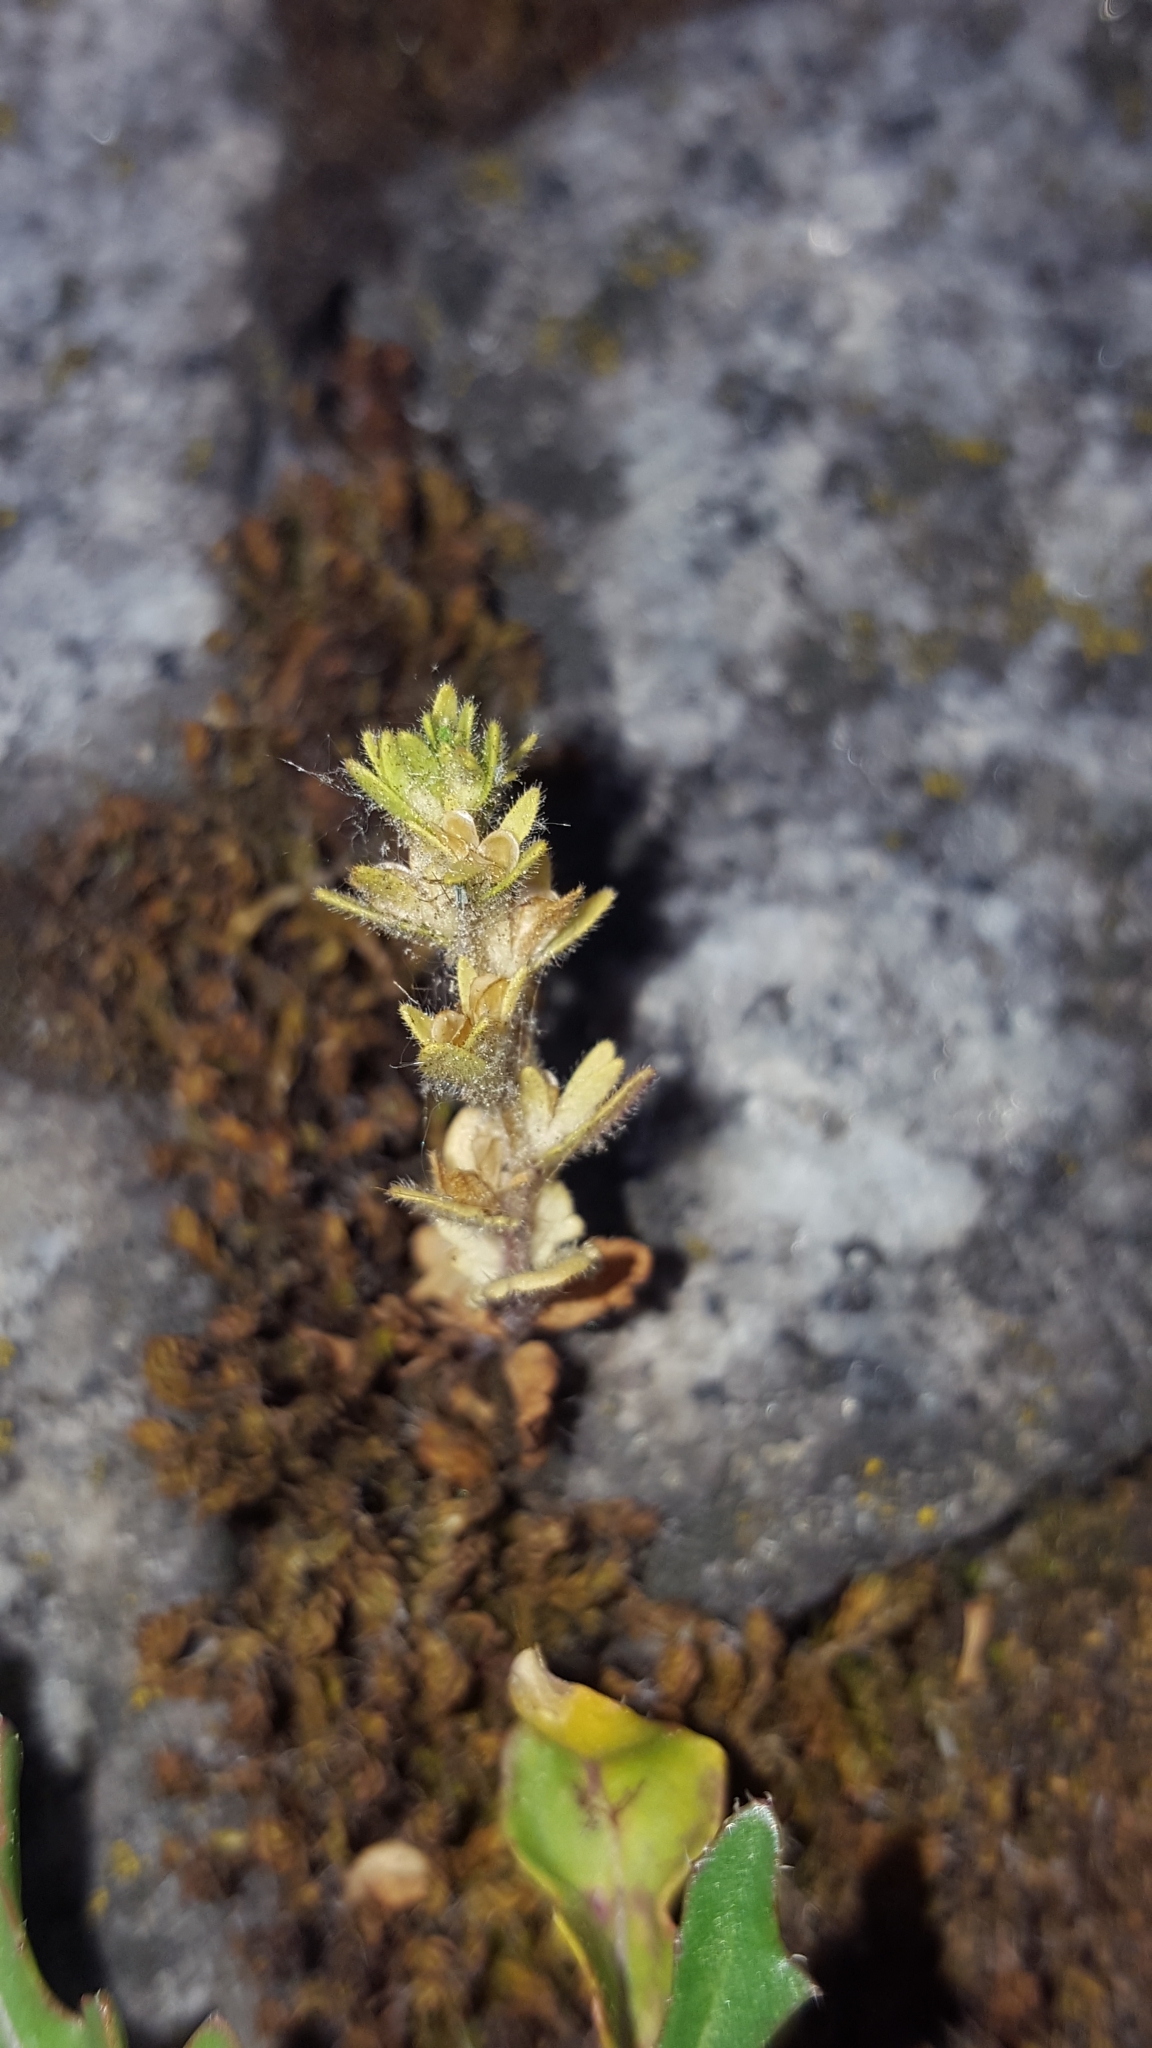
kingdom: Plantae
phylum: Tracheophyta
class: Magnoliopsida
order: Lamiales
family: Plantaginaceae
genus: Veronica
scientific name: Veronica arvensis
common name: Corn speedwell
